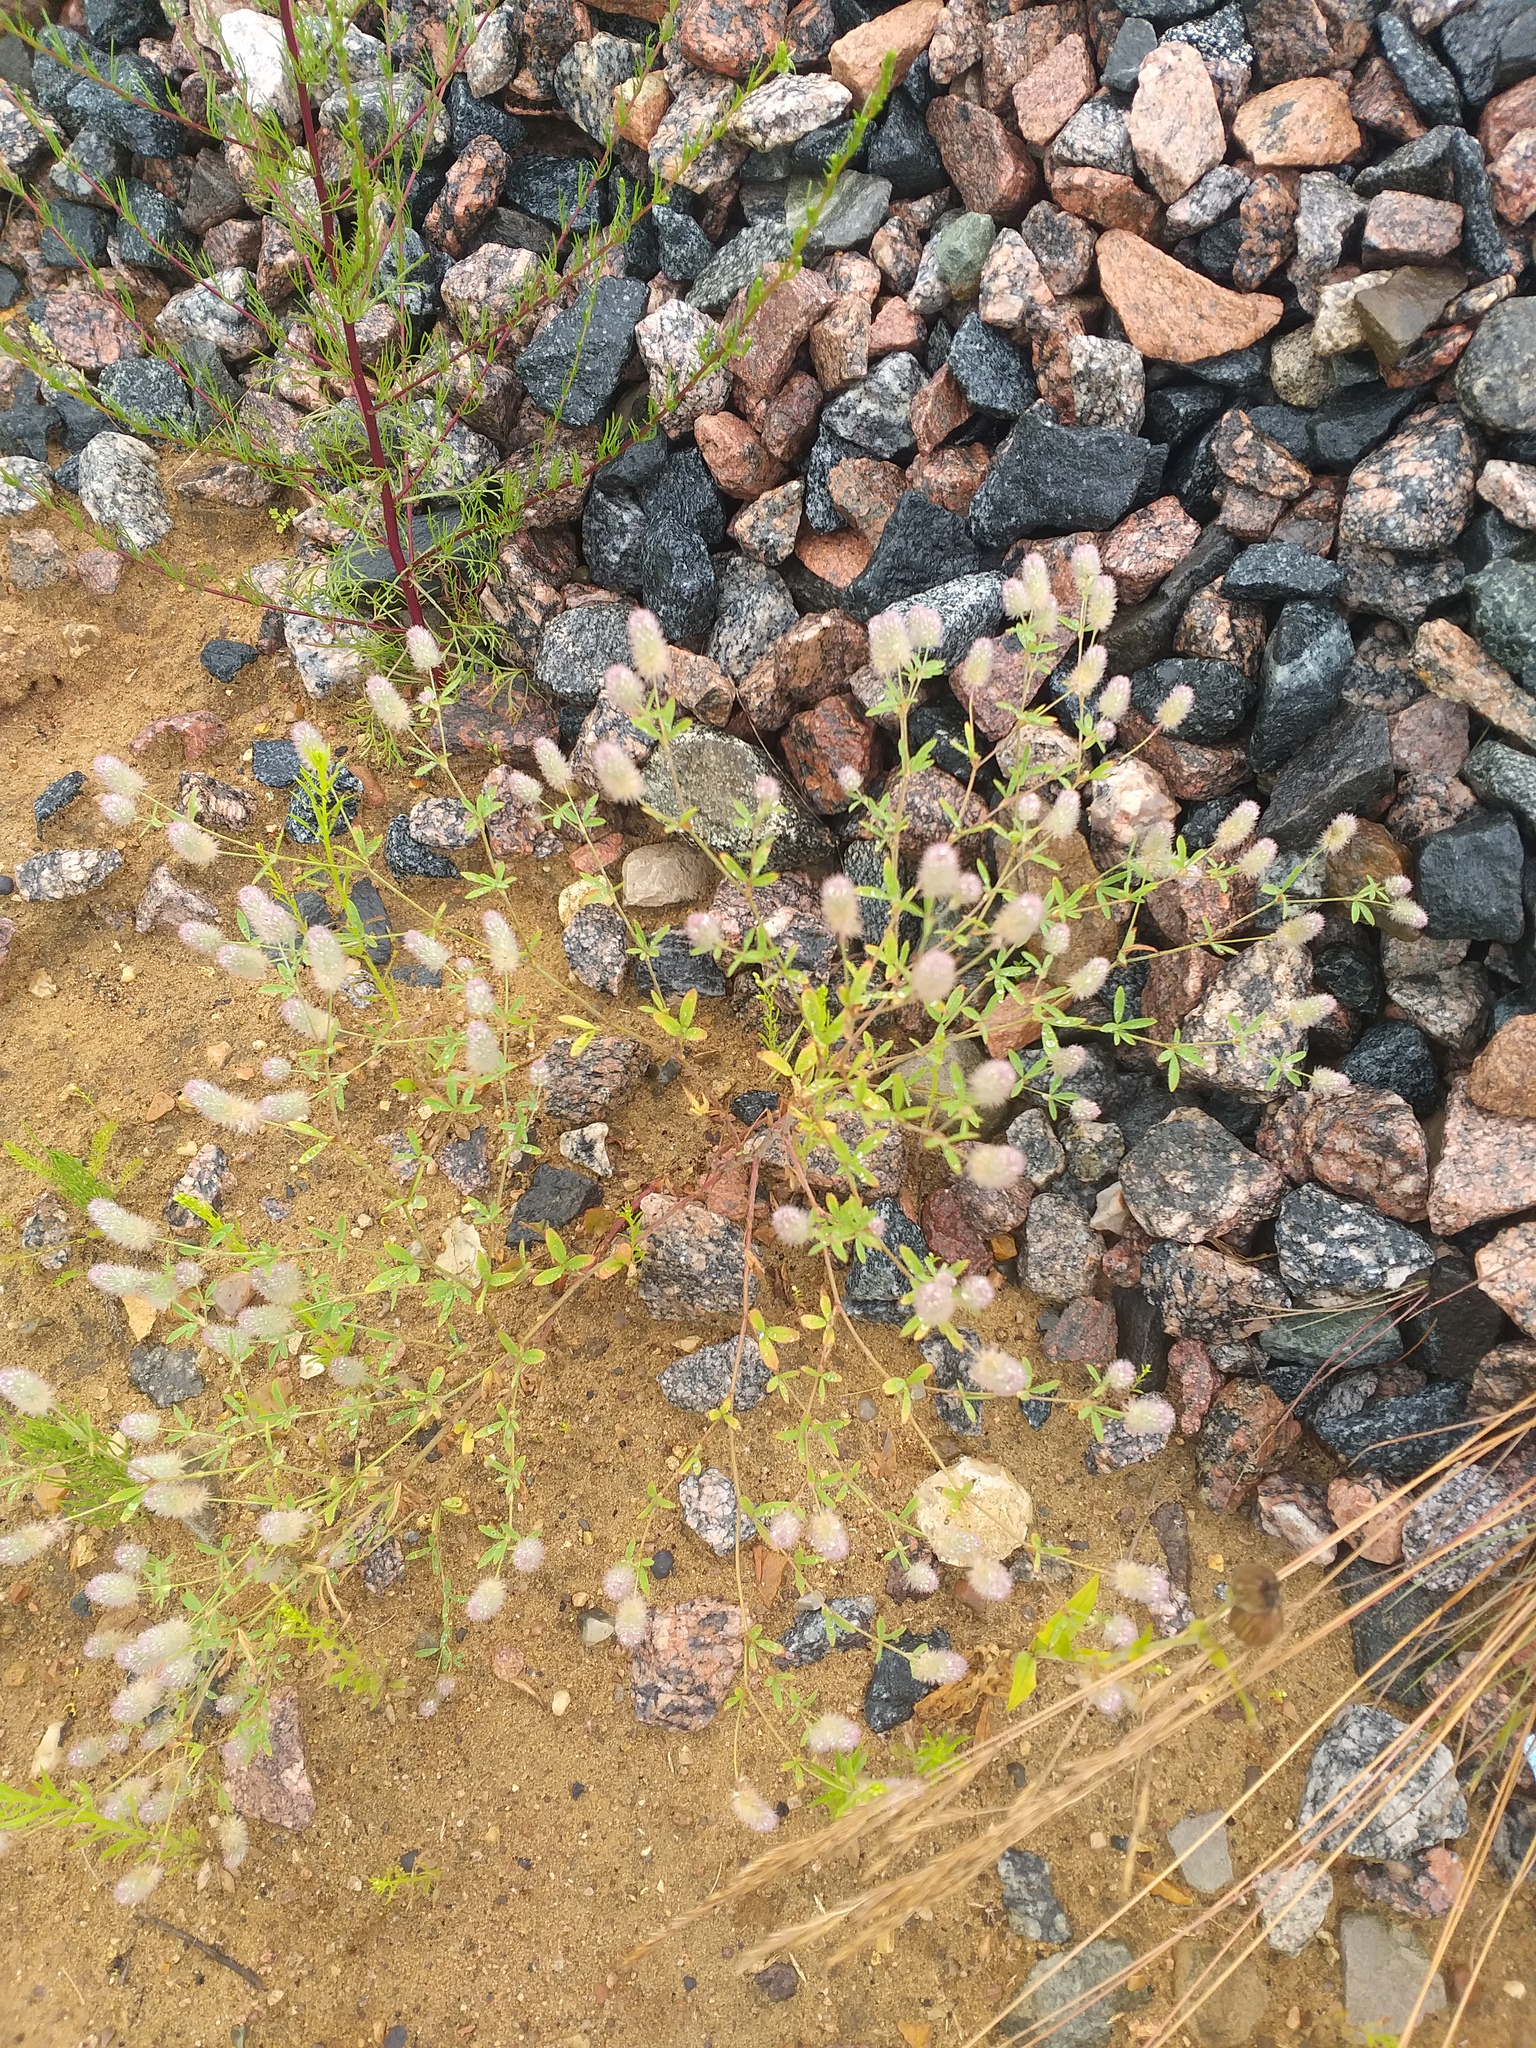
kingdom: Plantae
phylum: Tracheophyta
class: Magnoliopsida
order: Fabales
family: Fabaceae
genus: Trifolium
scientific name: Trifolium arvense
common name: Hare's-foot clover
